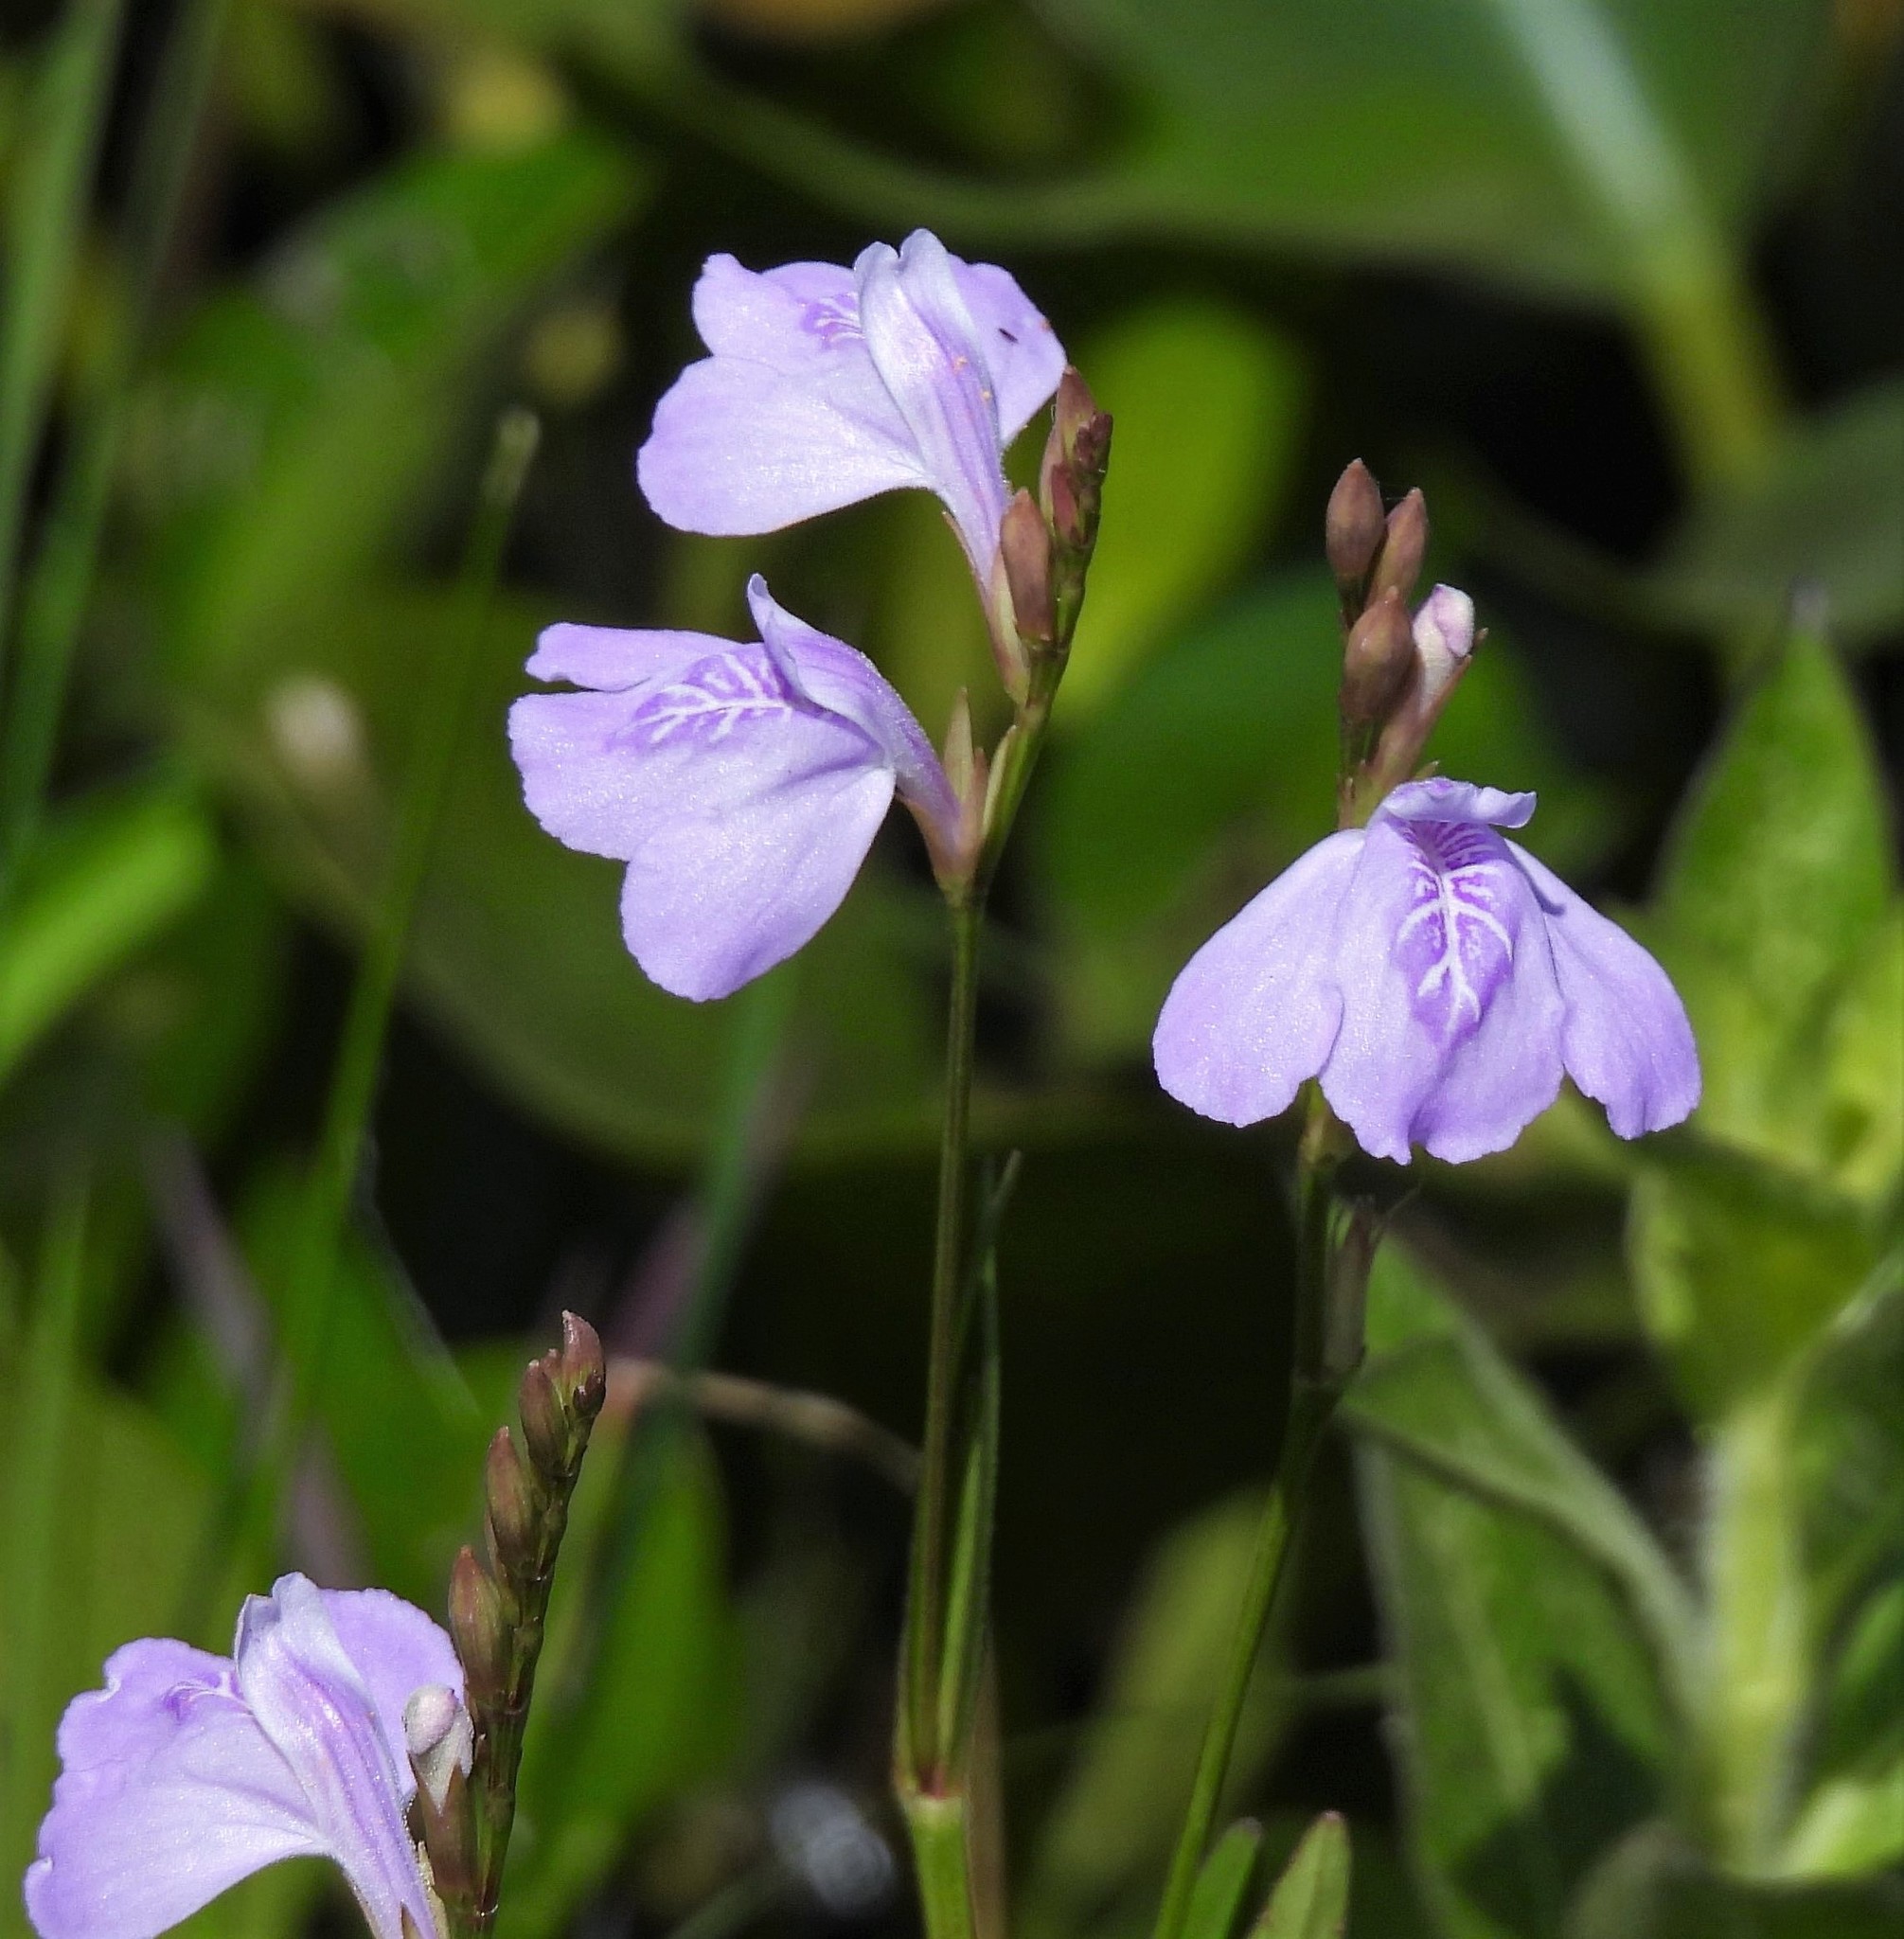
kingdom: Plantae
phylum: Tracheophyta
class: Magnoliopsida
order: Lamiales
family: Acanthaceae
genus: Dianthera
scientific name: Dianthera laevilinguis
